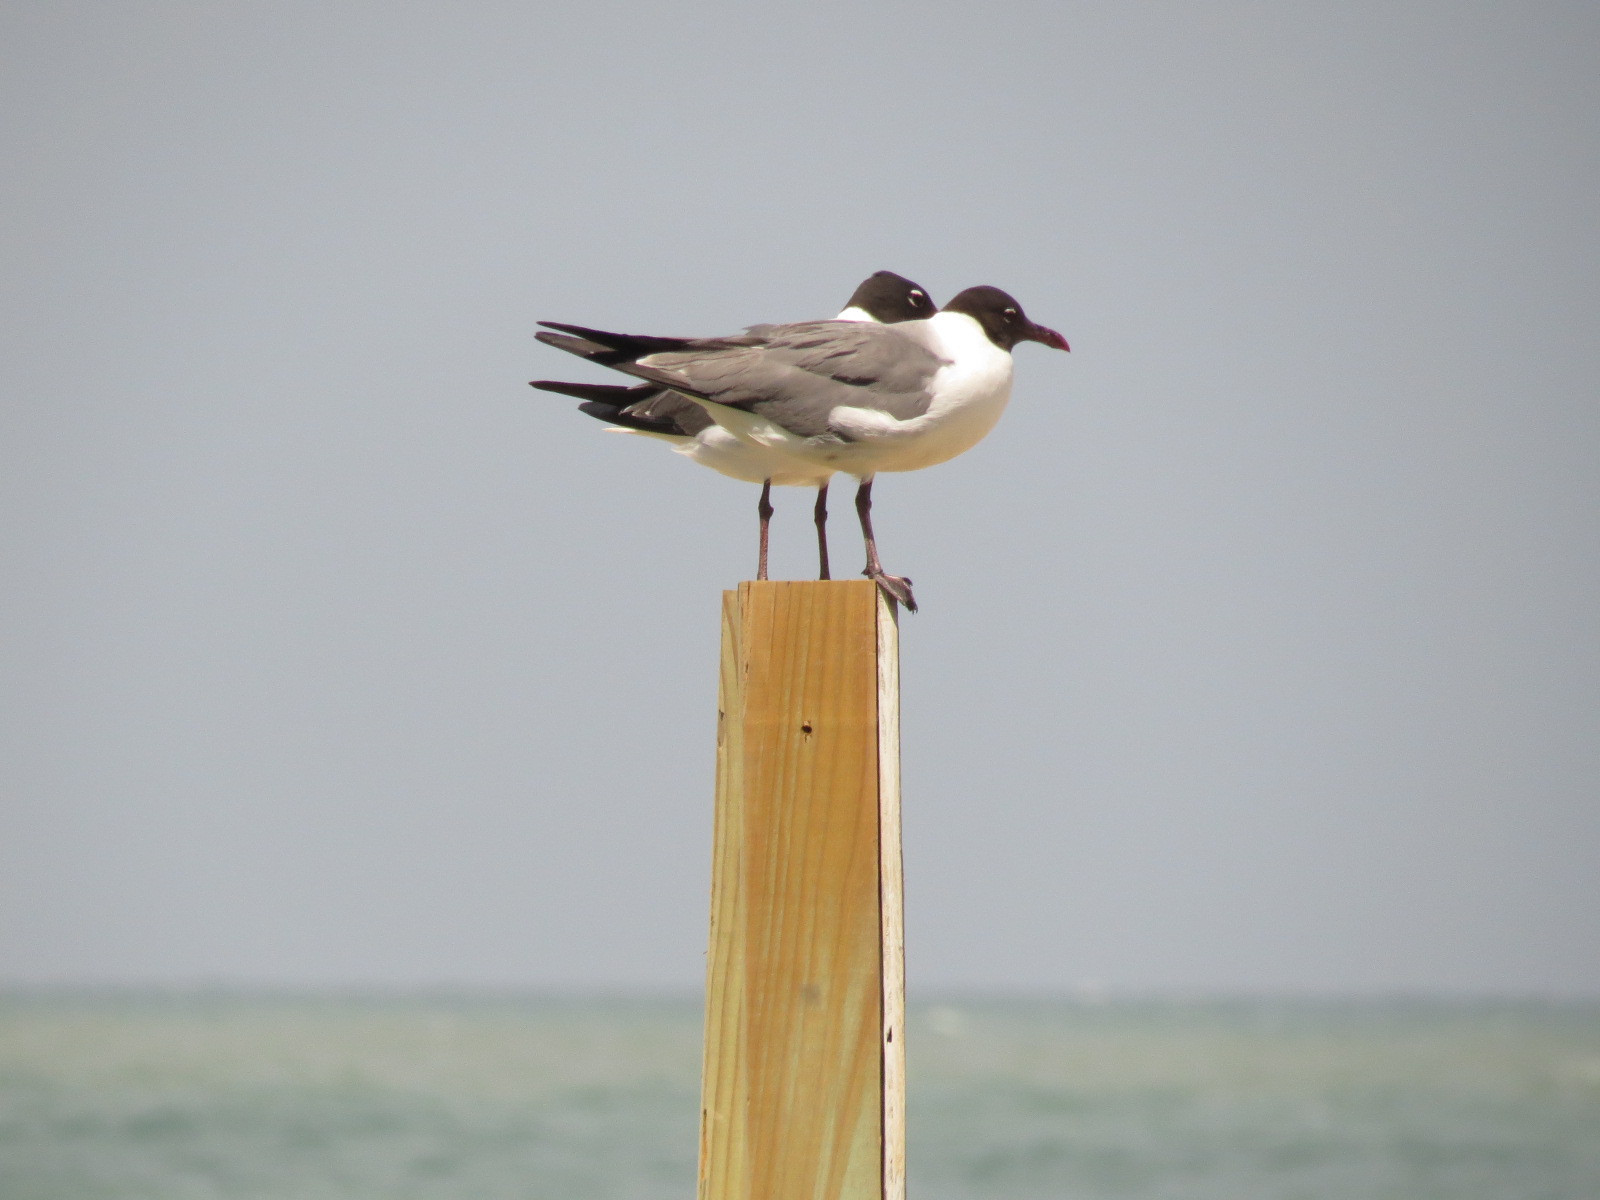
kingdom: Animalia
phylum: Chordata
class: Aves
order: Charadriiformes
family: Laridae
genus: Leucophaeus
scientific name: Leucophaeus atricilla
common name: Laughing gull
